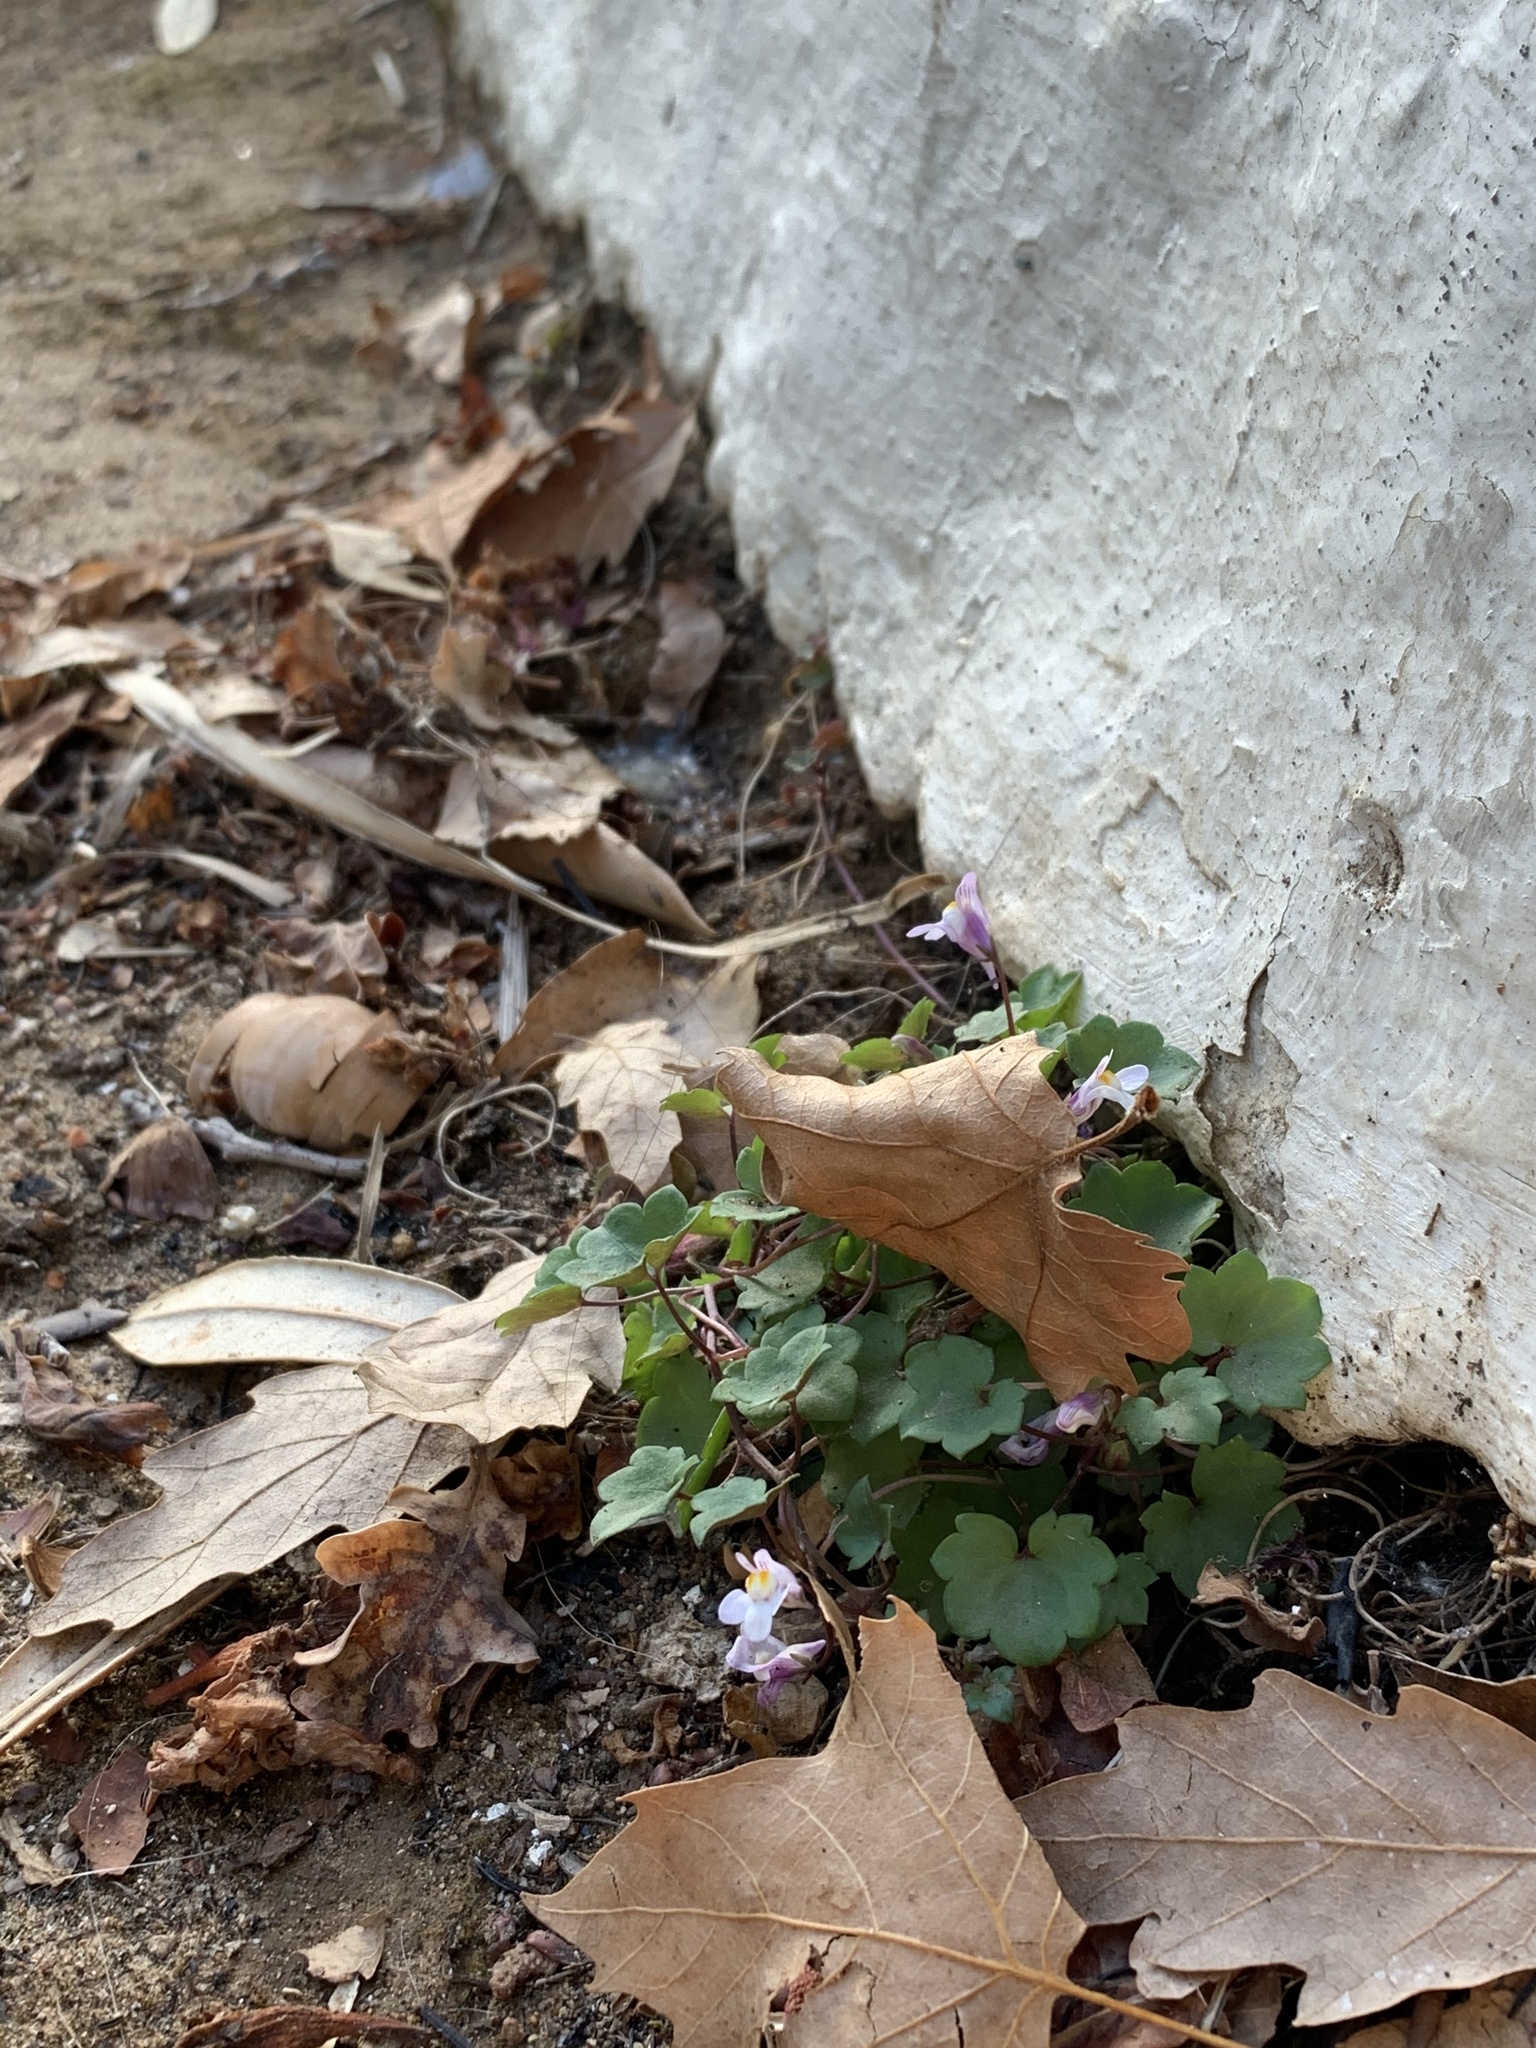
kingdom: Plantae
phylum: Tracheophyta
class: Magnoliopsida
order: Lamiales
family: Plantaginaceae
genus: Cymbalaria
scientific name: Cymbalaria muralis
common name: Ivy-leaved toadflax
